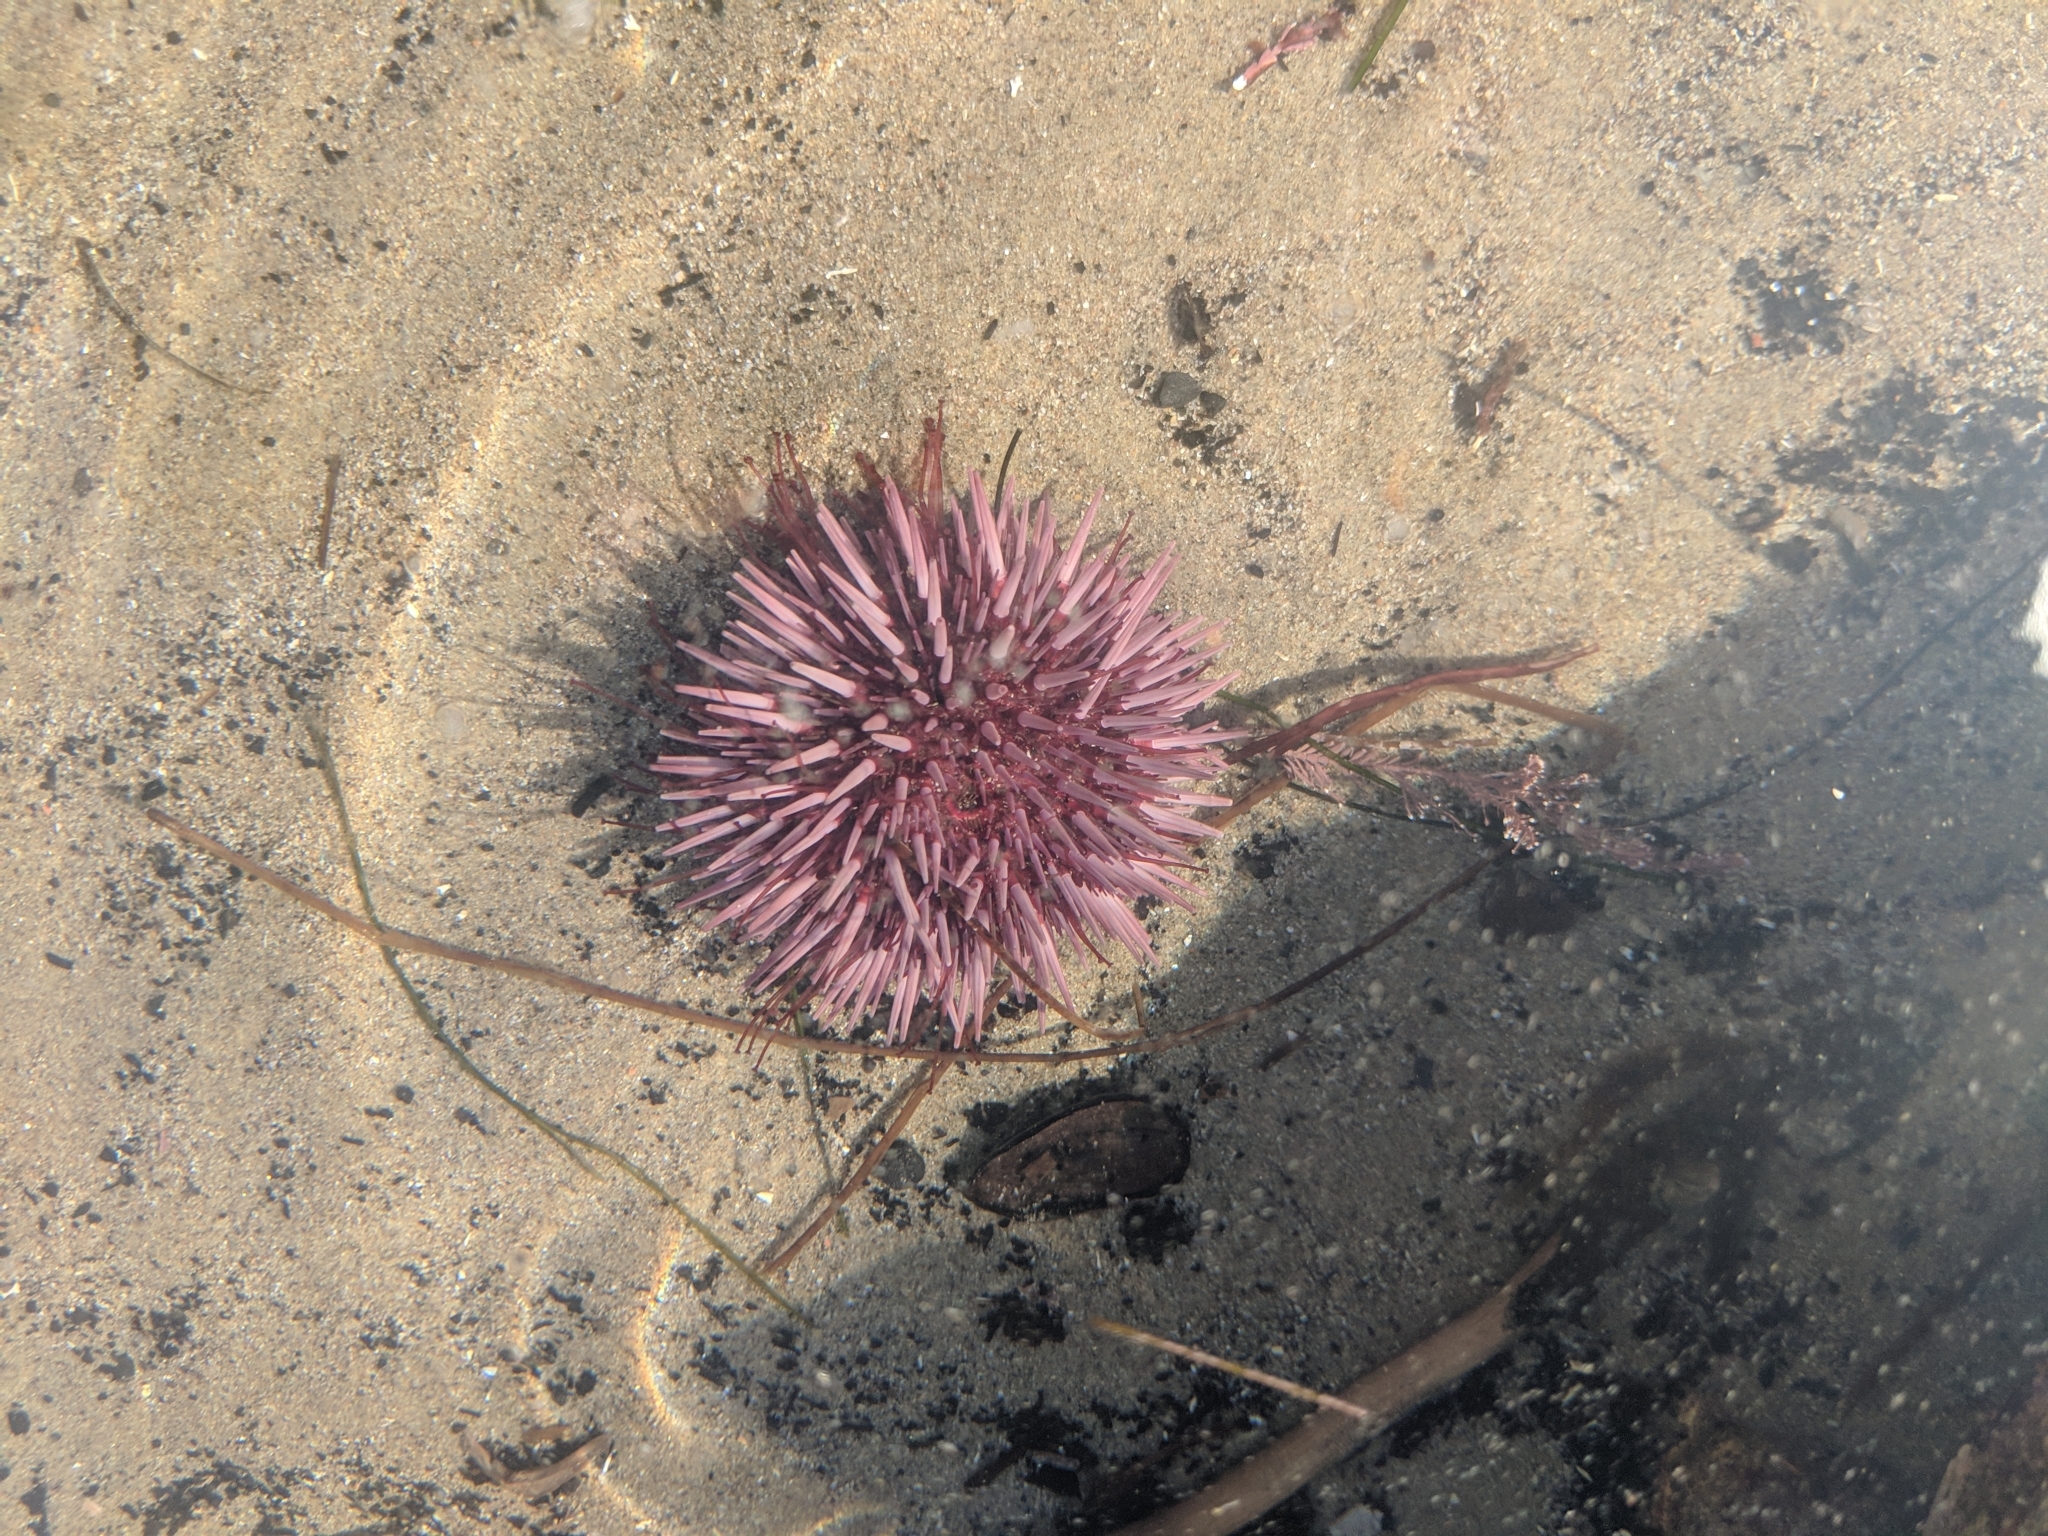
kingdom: Animalia
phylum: Echinodermata
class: Echinoidea
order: Camarodonta
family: Strongylocentrotidae
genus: Strongylocentrotus
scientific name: Strongylocentrotus purpuratus
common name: Purple sea urchin
